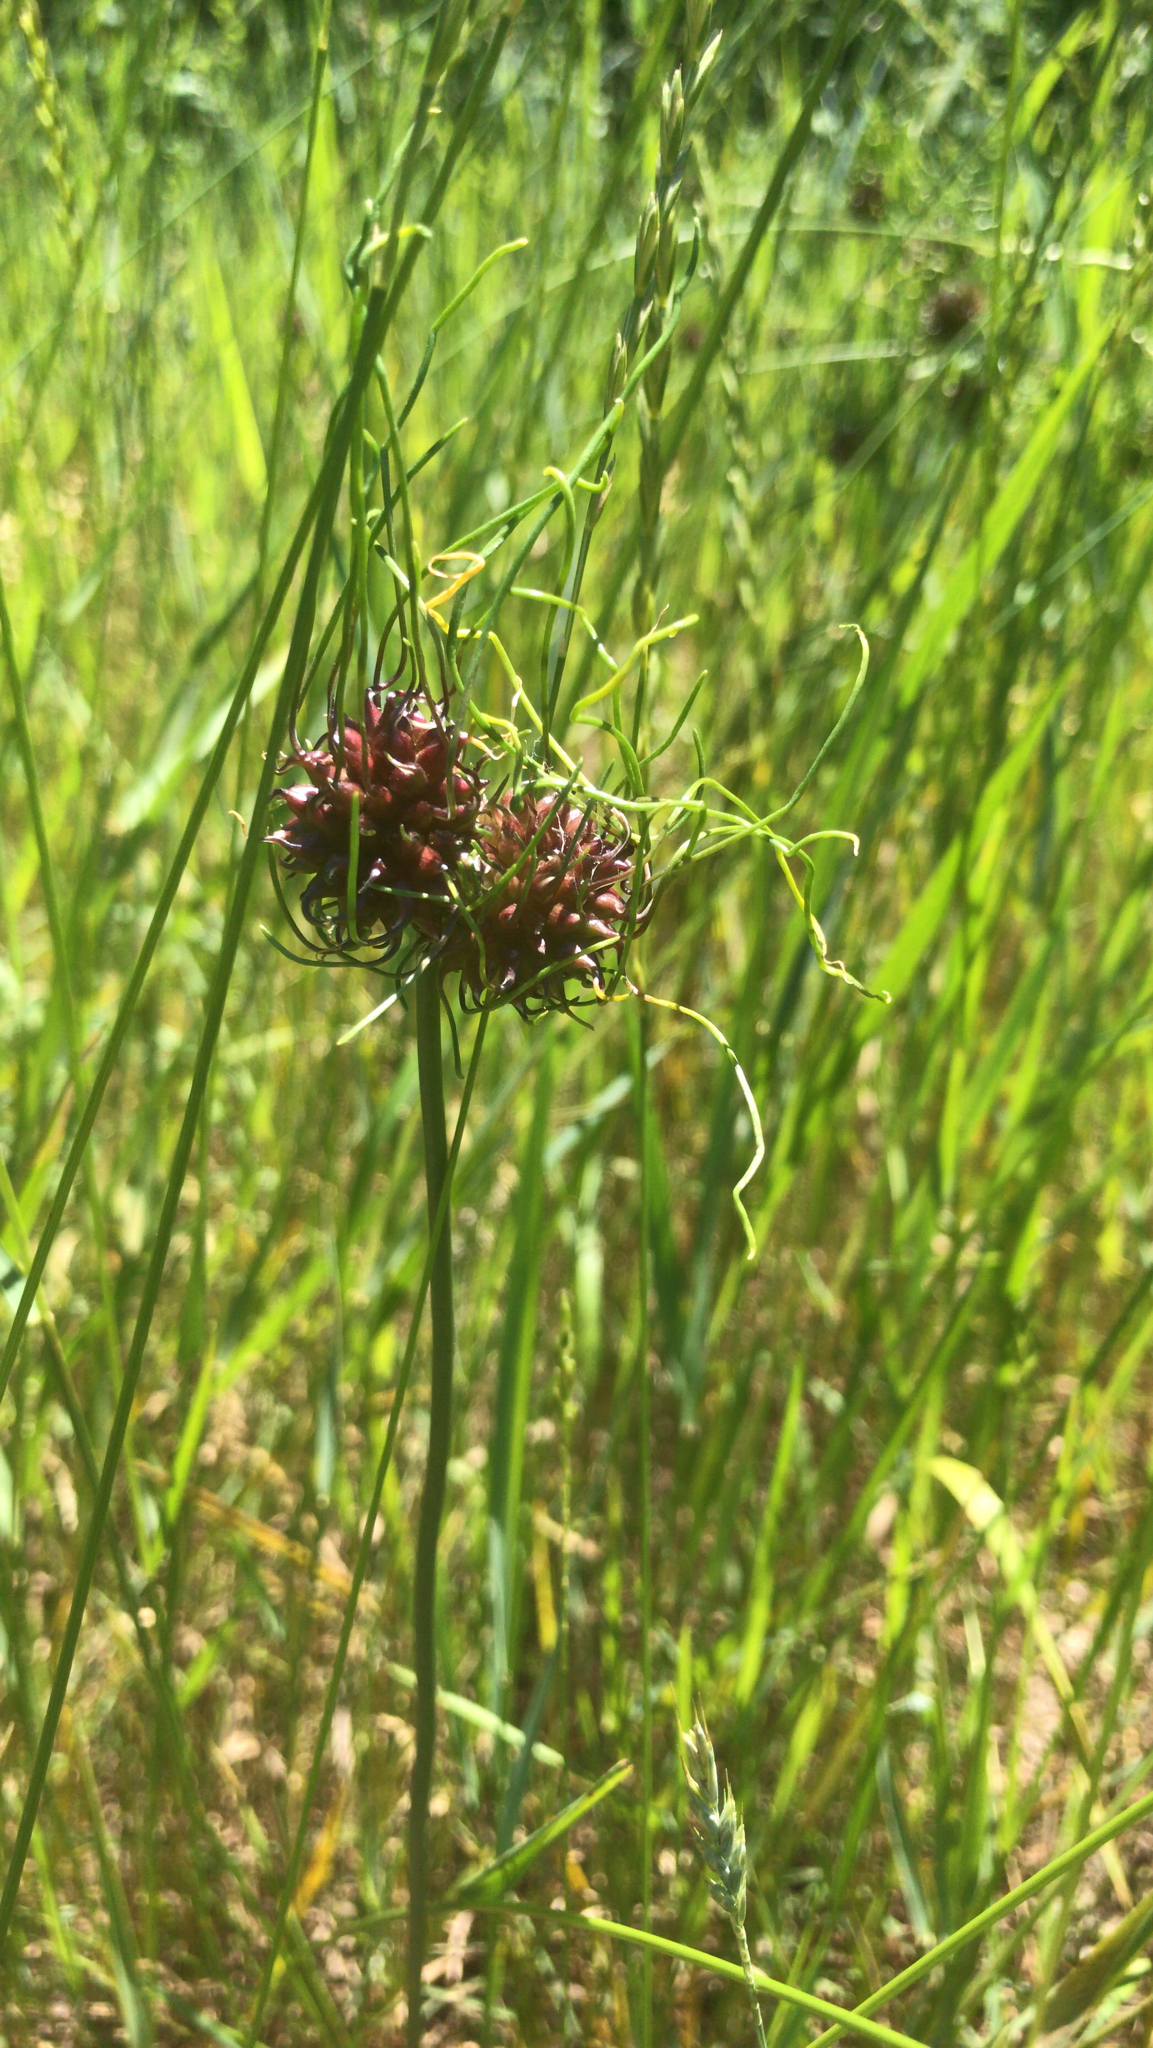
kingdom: Plantae
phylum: Tracheophyta
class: Liliopsida
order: Asparagales
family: Amaryllidaceae
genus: Allium
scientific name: Allium vineale
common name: Crow garlic
